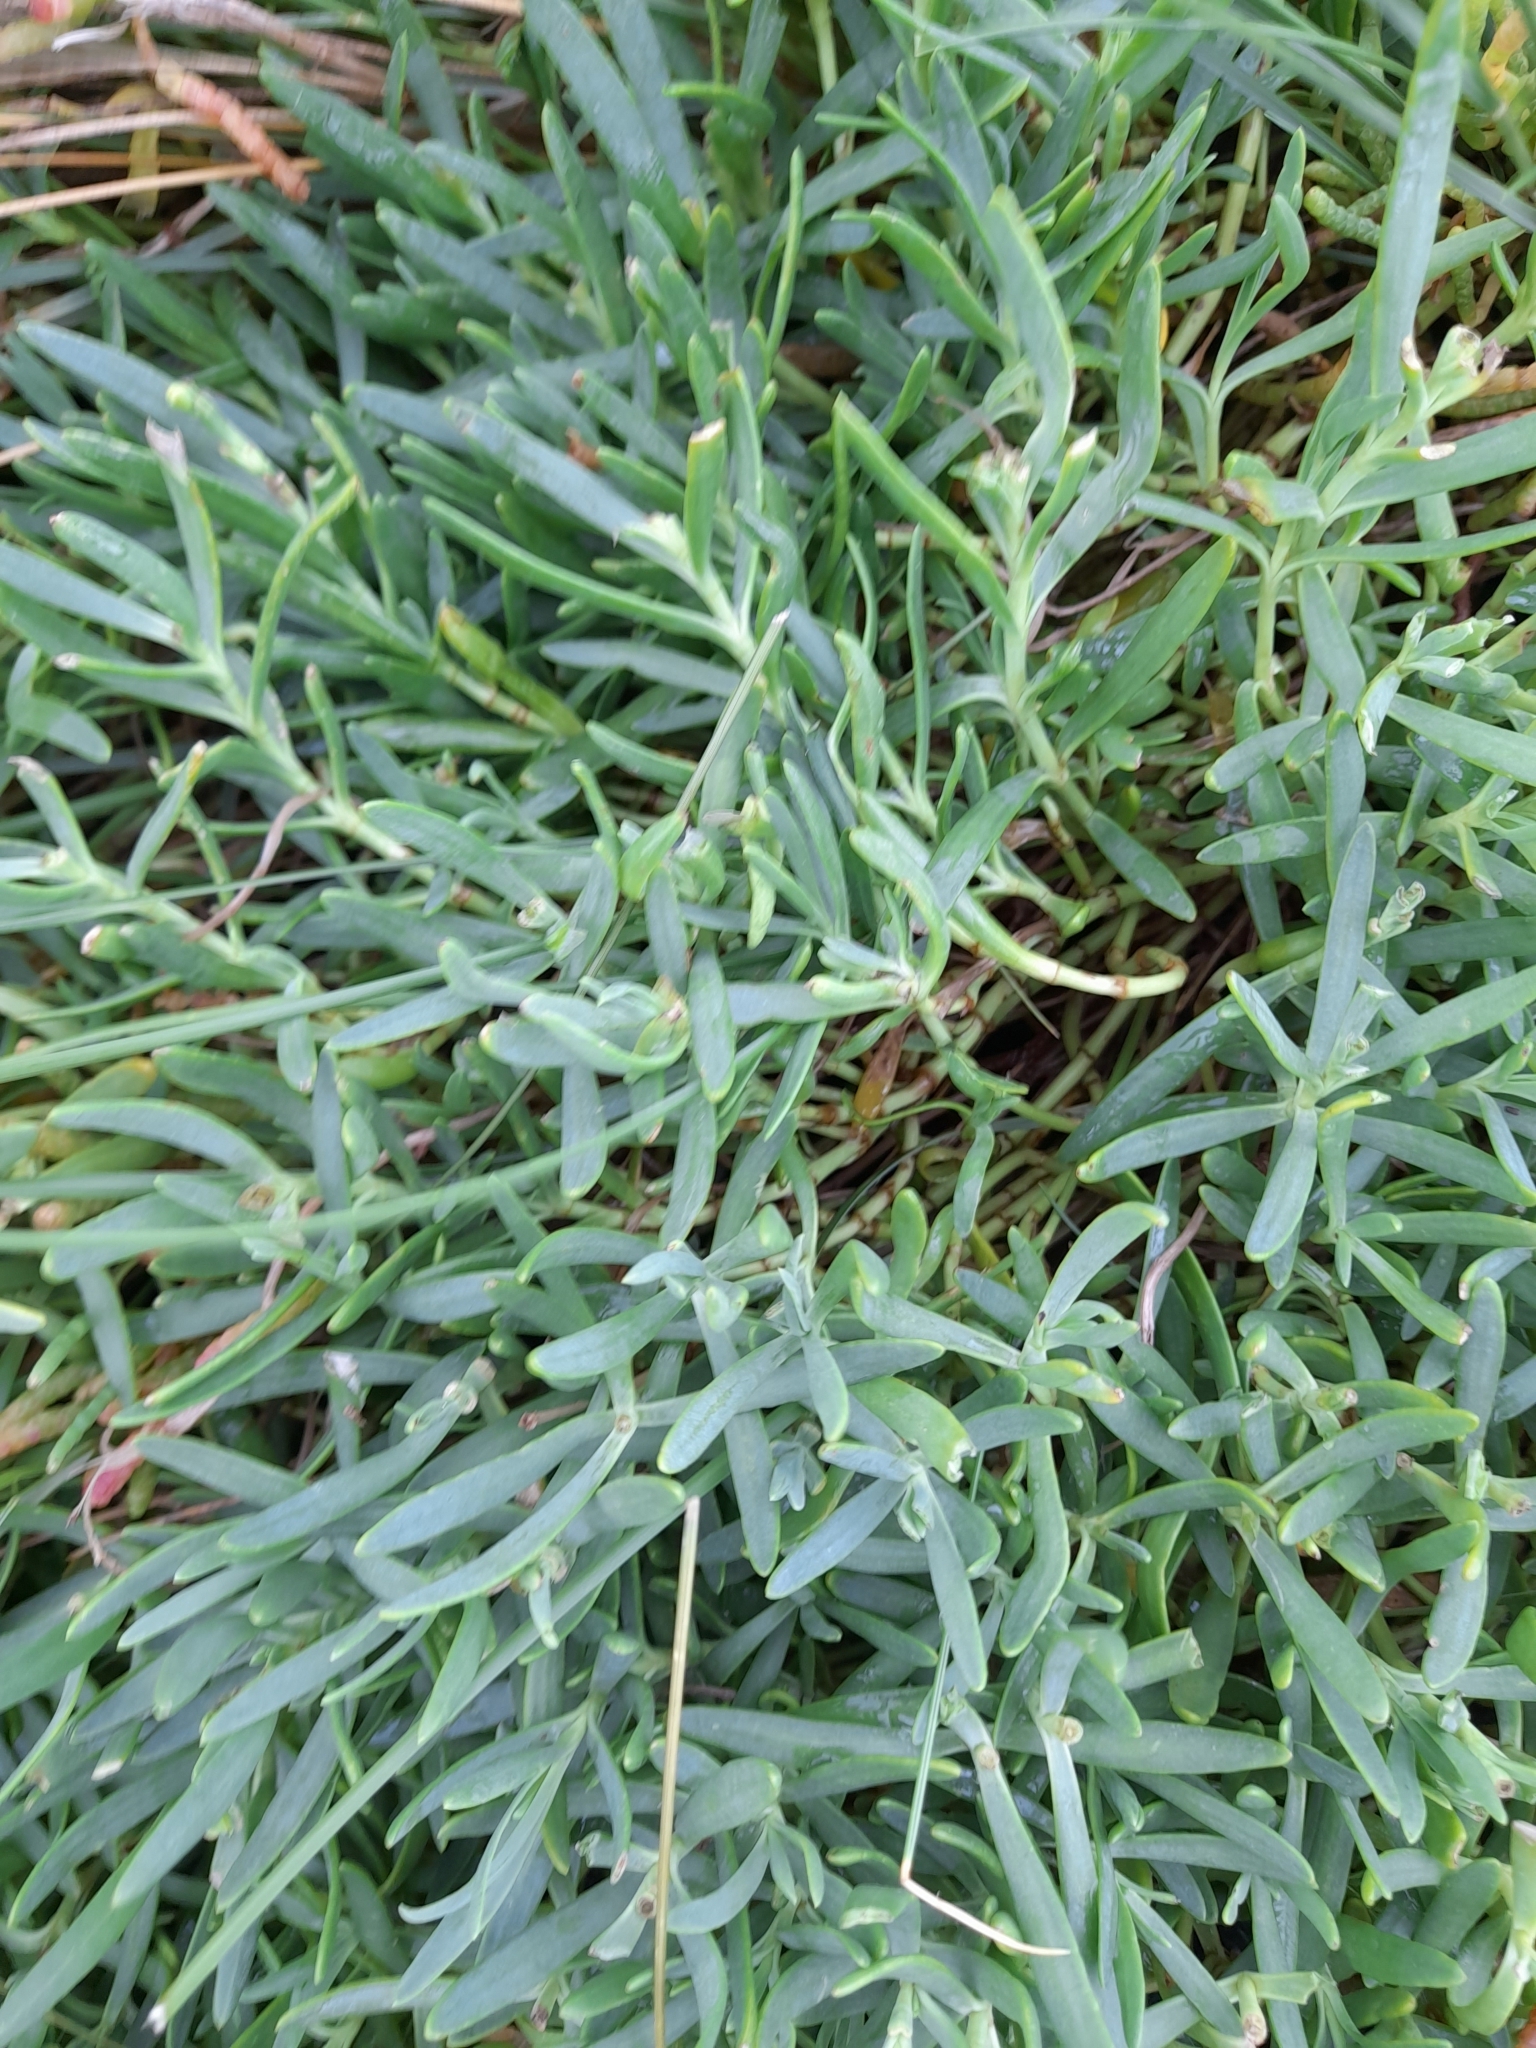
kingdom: Plantae
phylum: Tracheophyta
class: Magnoliopsida
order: Asterales
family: Asteraceae
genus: Jaumea
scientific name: Jaumea linearifolia
